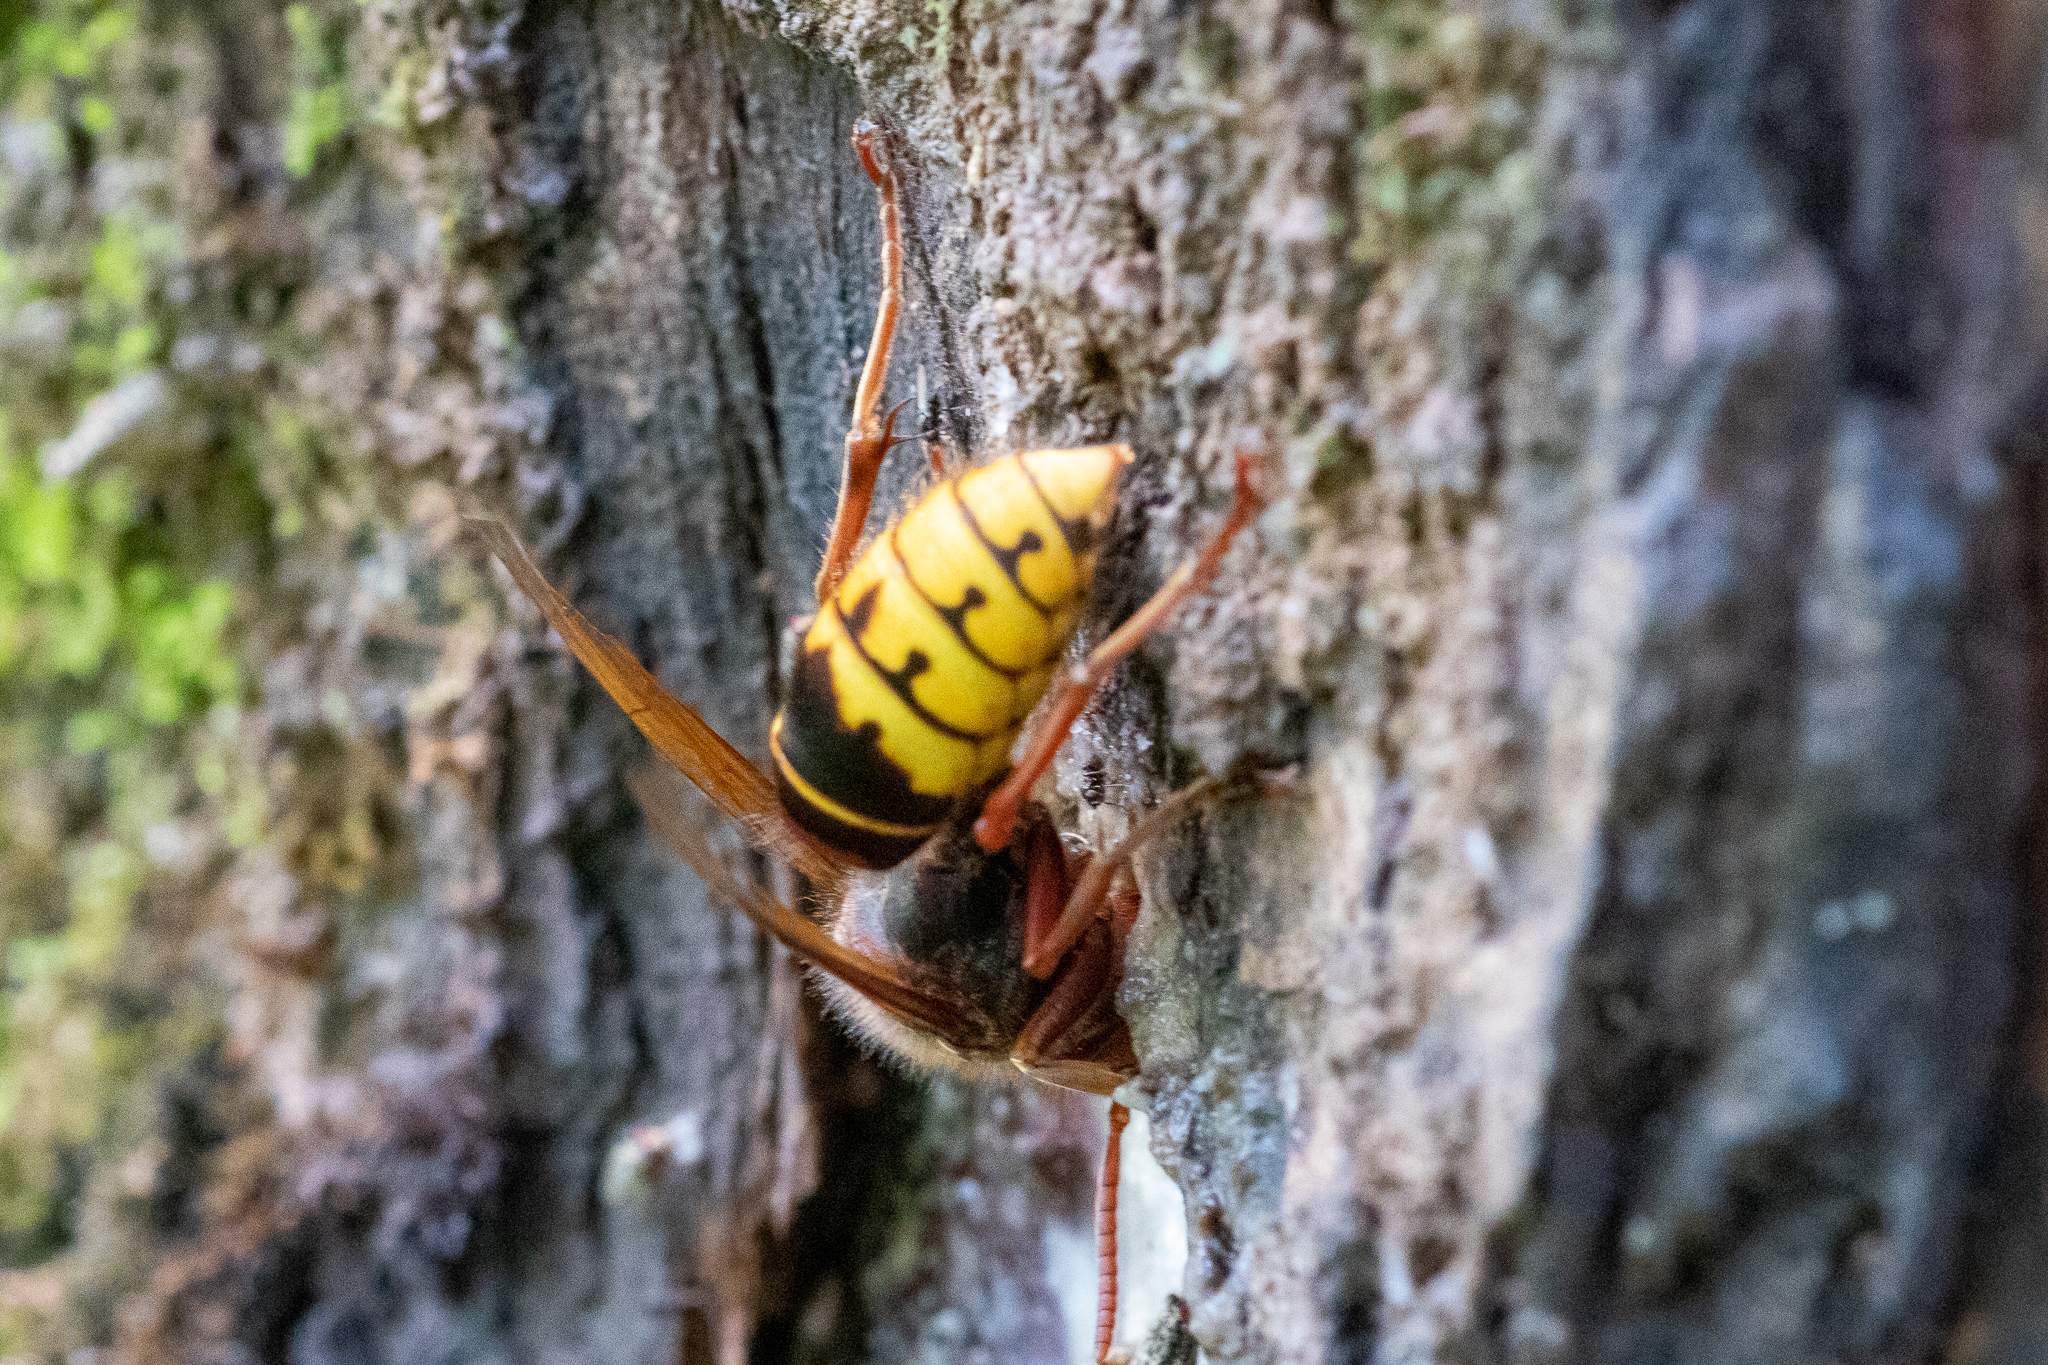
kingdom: Animalia
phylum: Arthropoda
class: Insecta
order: Hymenoptera
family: Vespidae
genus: Vespa
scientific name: Vespa crabro
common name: Hornet
